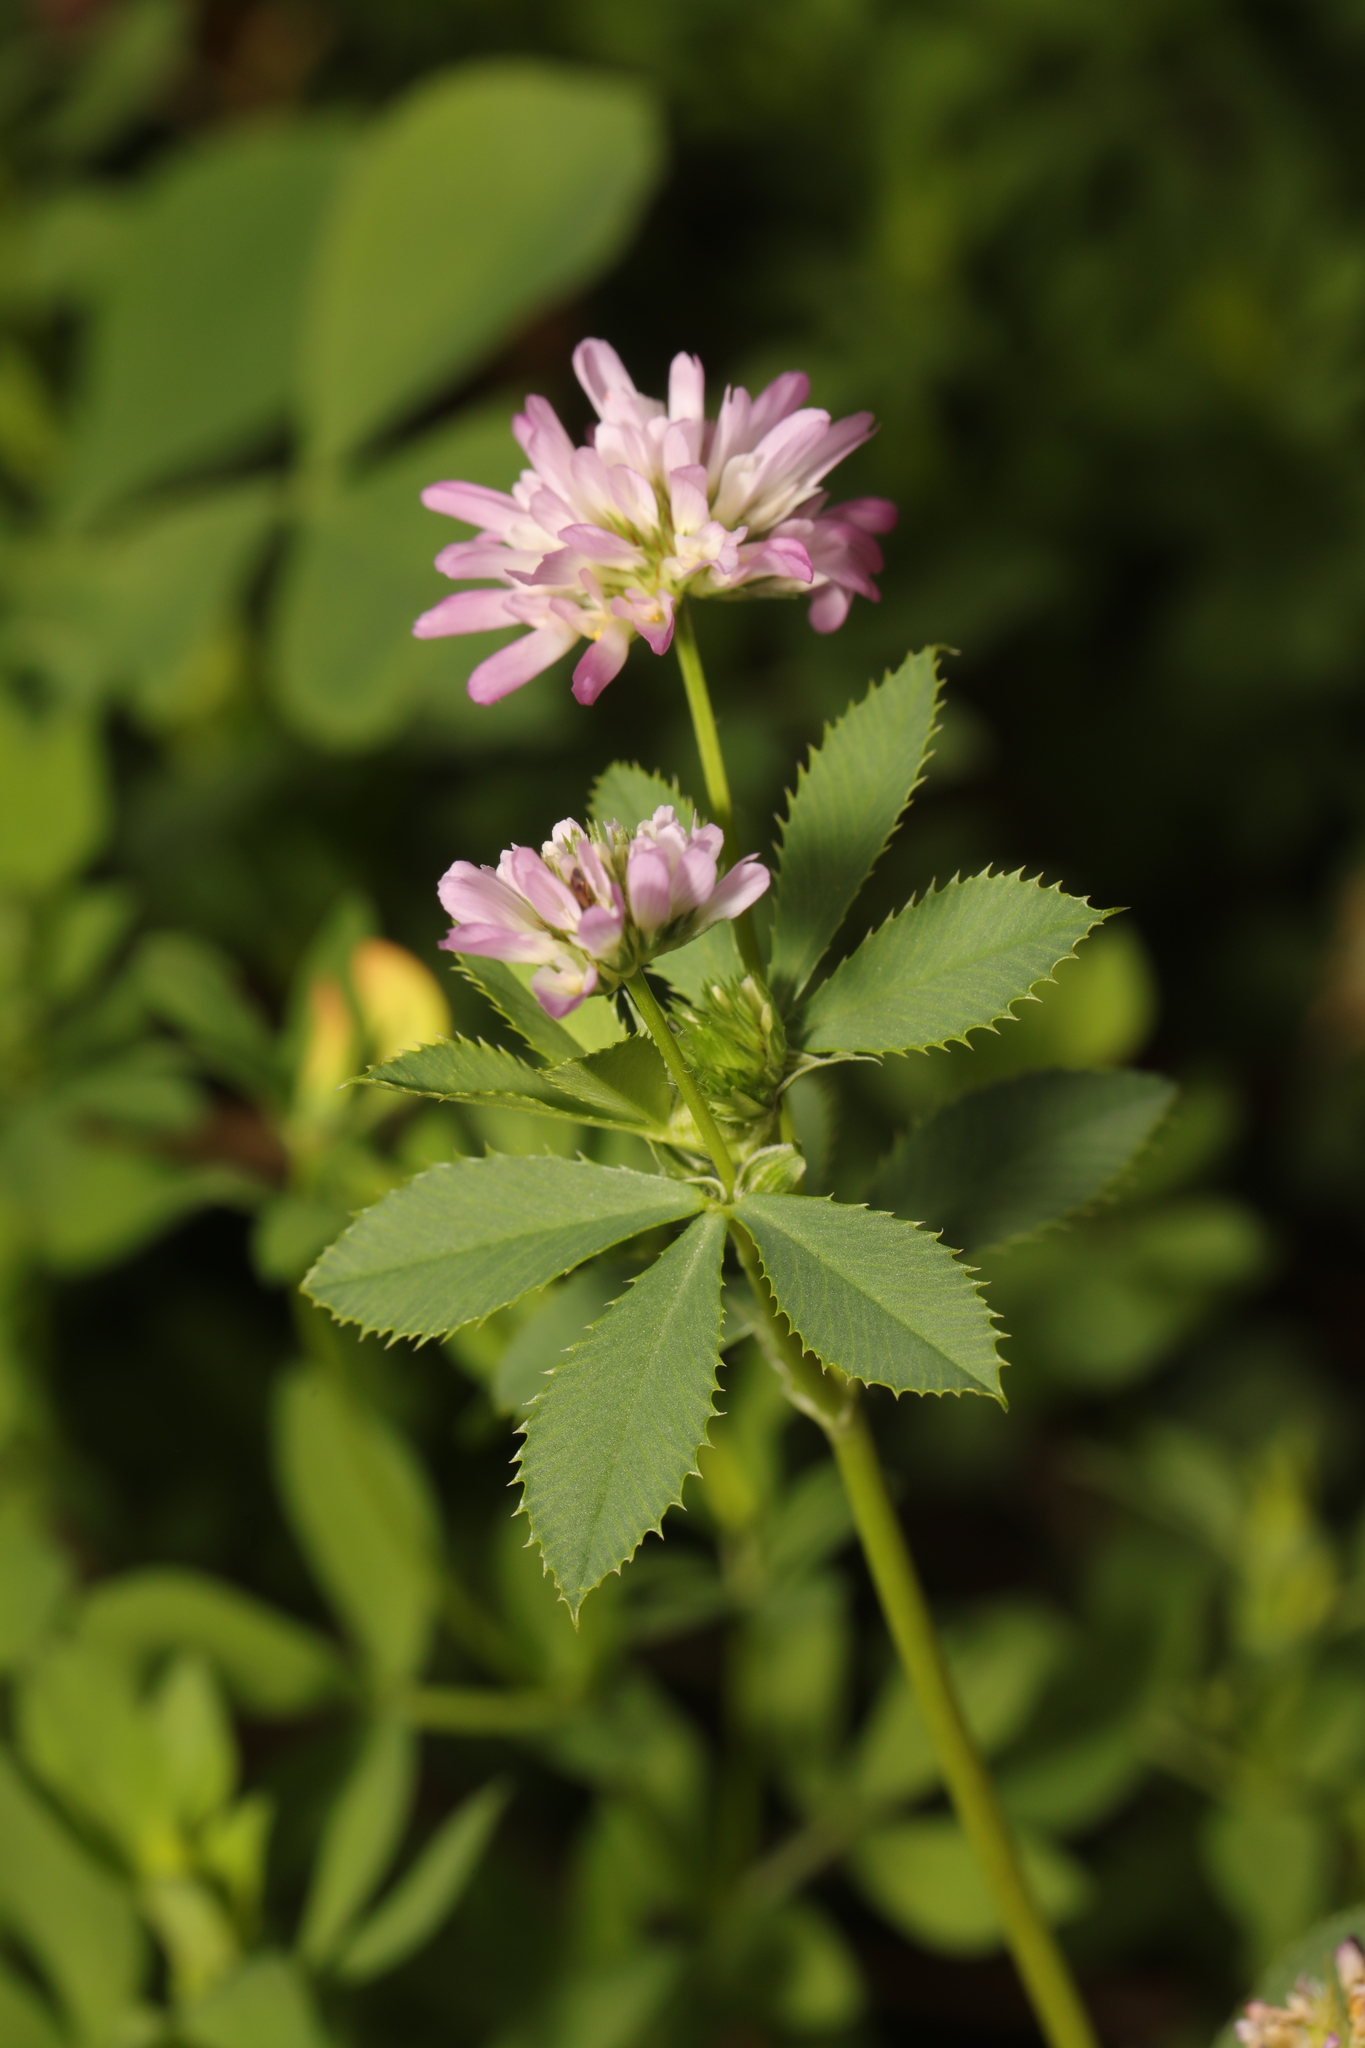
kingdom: Plantae
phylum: Tracheophyta
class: Magnoliopsida
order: Fabales
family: Fabaceae
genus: Trifolium
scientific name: Trifolium resupinatum
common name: Reversed clover
